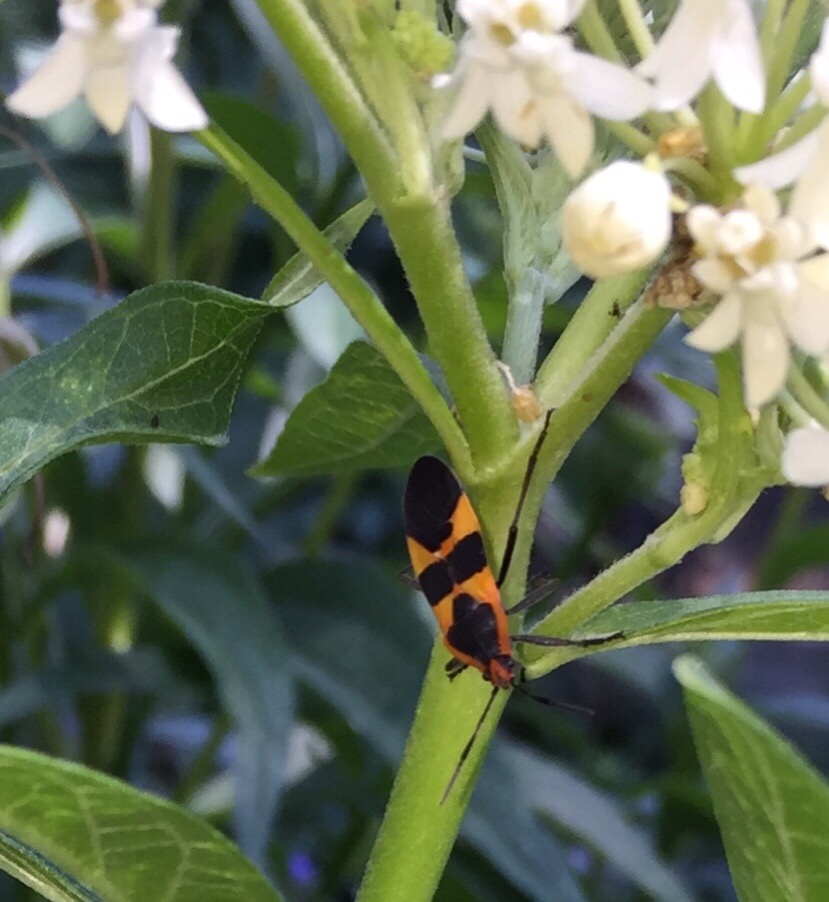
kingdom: Animalia
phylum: Arthropoda
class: Insecta
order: Hemiptera
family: Lygaeidae
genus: Oncopeltus
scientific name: Oncopeltus fasciatus
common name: Large milkweed bug
